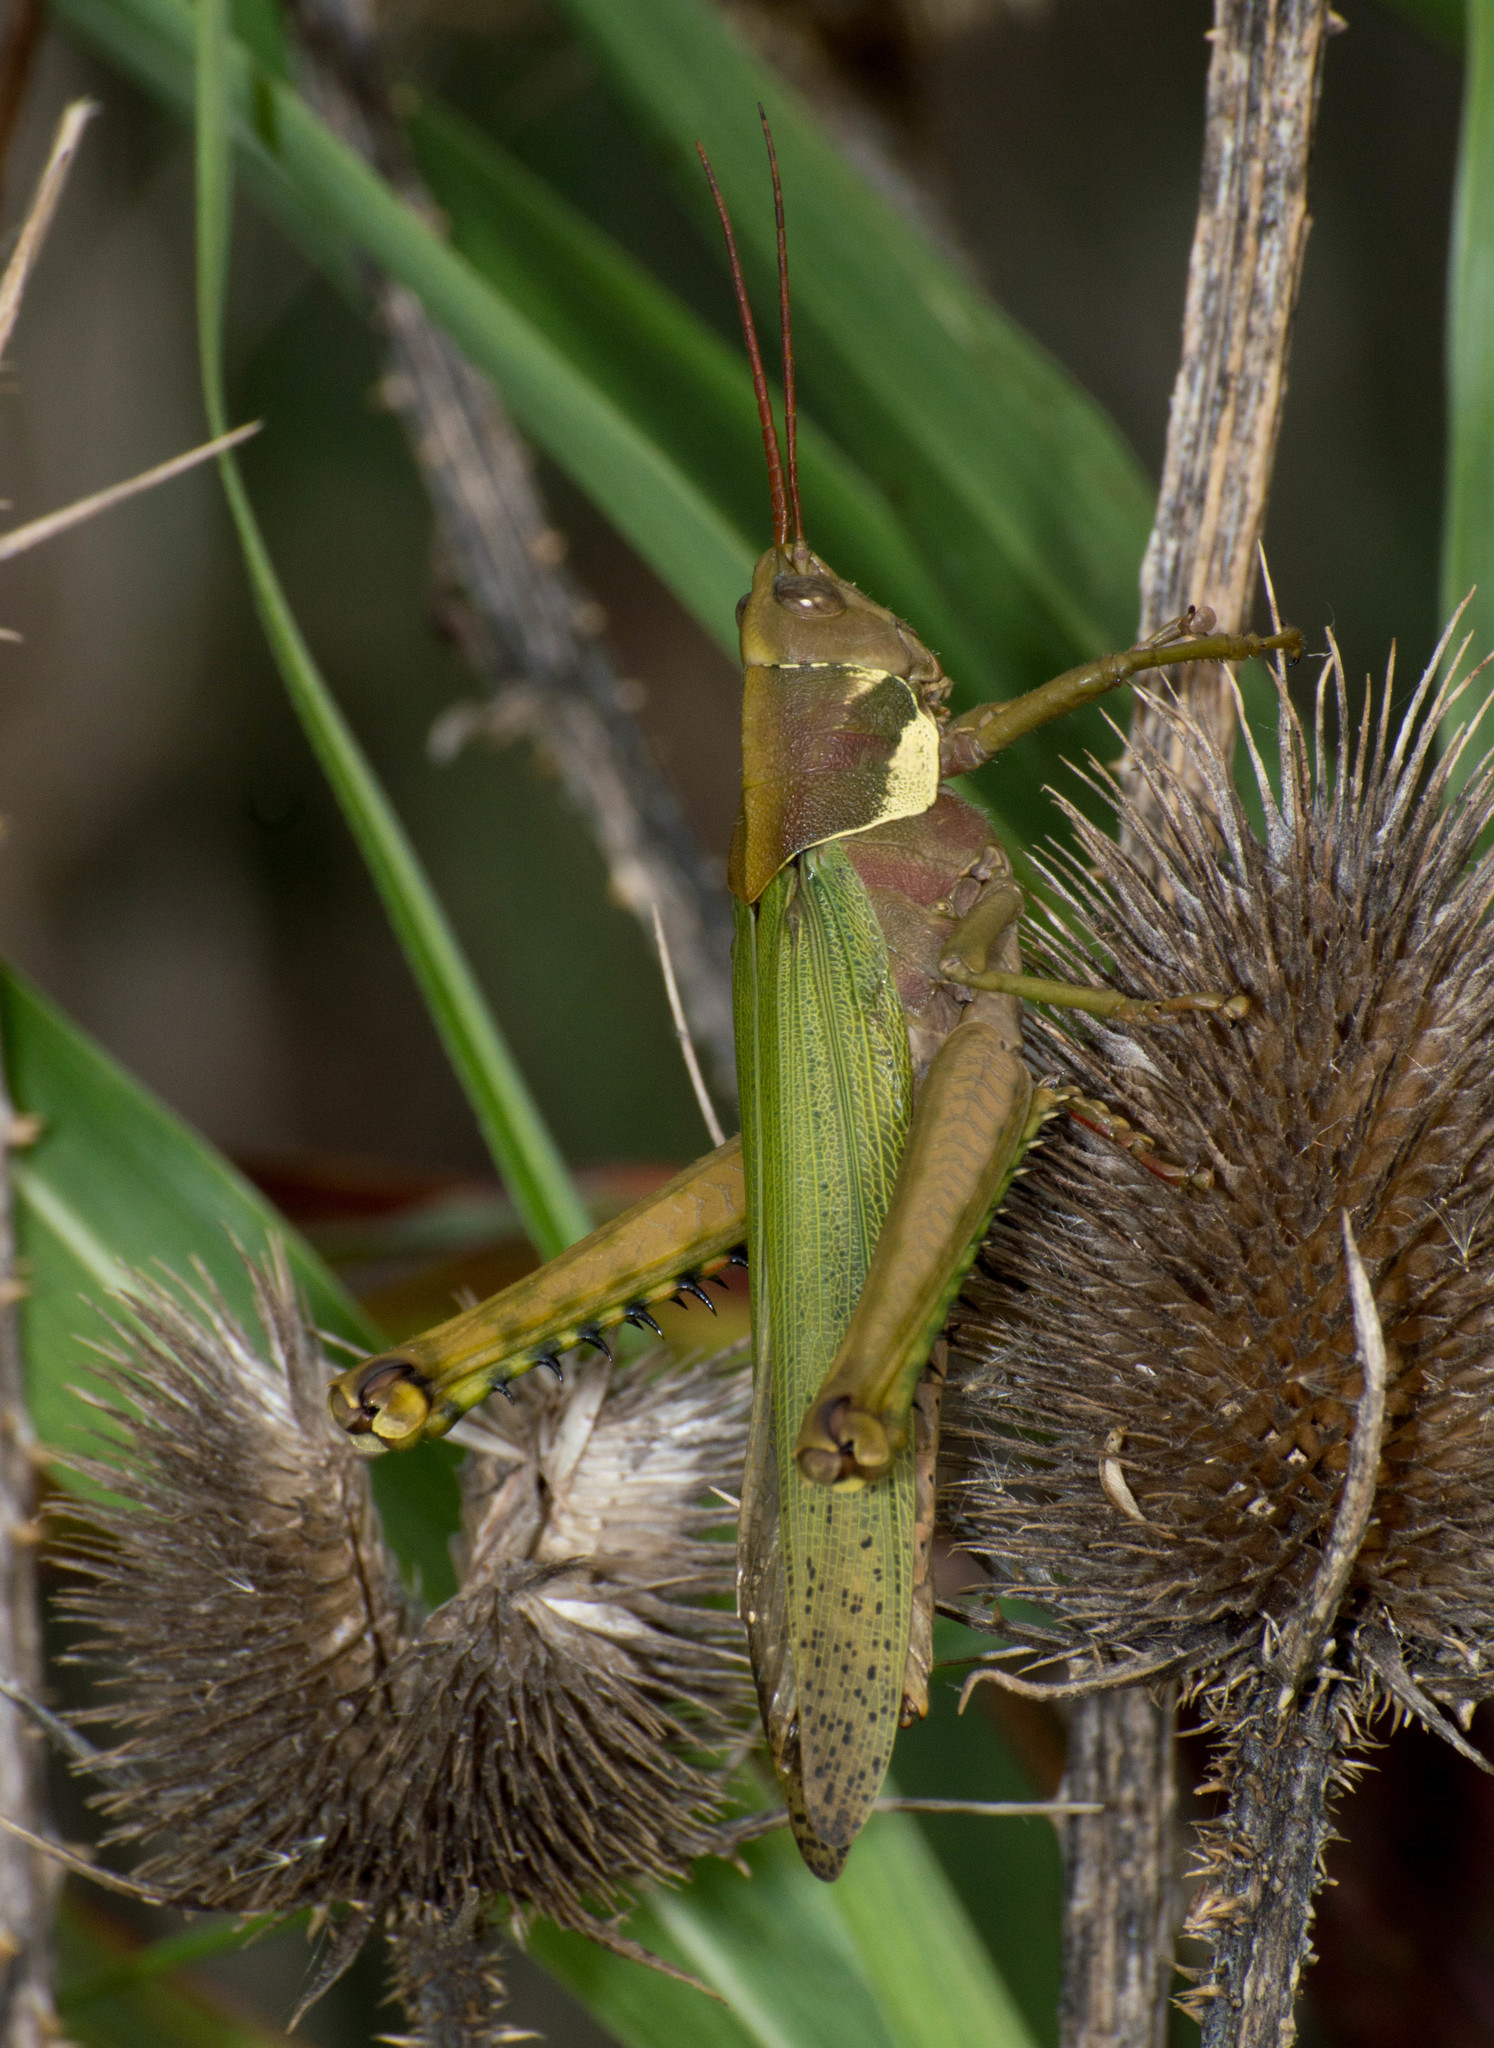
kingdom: Animalia
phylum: Arthropoda
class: Insecta
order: Orthoptera
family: Romaleidae
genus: Coryacris
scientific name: Coryacris angustipennis
